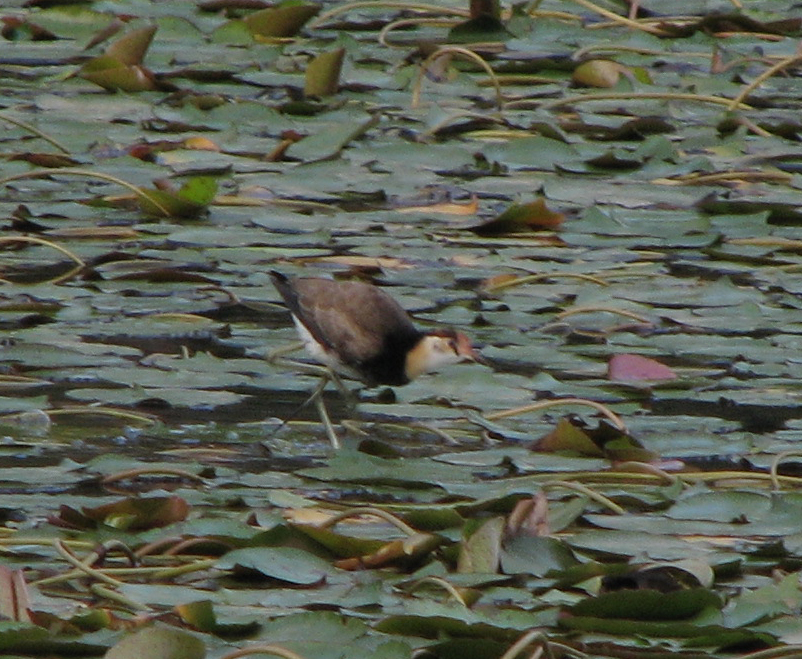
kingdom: Animalia
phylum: Chordata
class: Aves
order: Charadriiformes
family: Jacanidae
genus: Irediparra
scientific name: Irediparra gallinacea
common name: Comb-crested jacana
